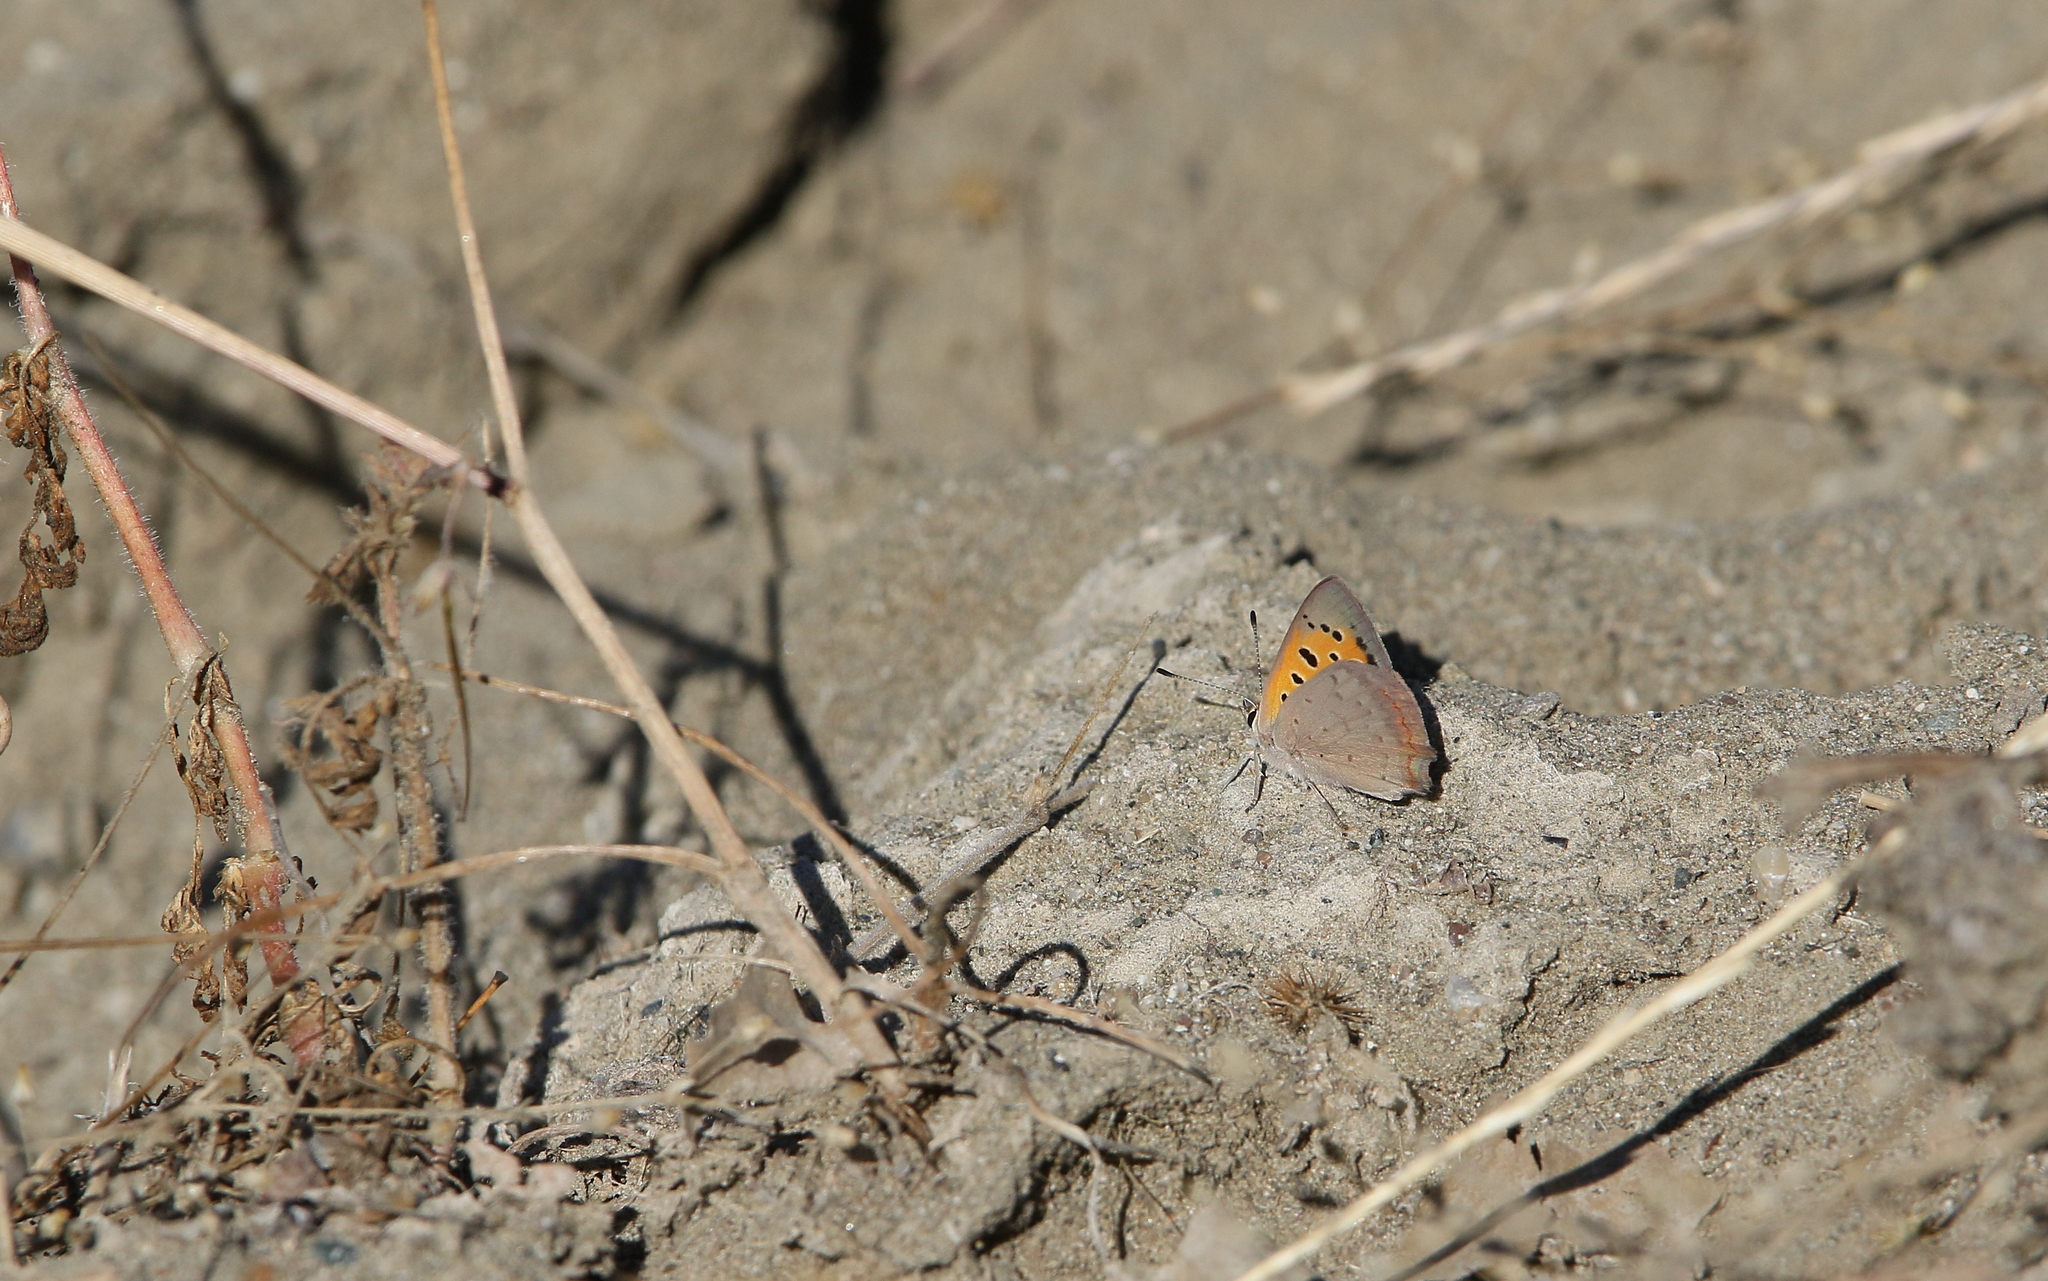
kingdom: Animalia
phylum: Arthropoda
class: Insecta
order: Lepidoptera
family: Lycaenidae
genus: Lycaena
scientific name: Lycaena phlaeas
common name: Small copper
